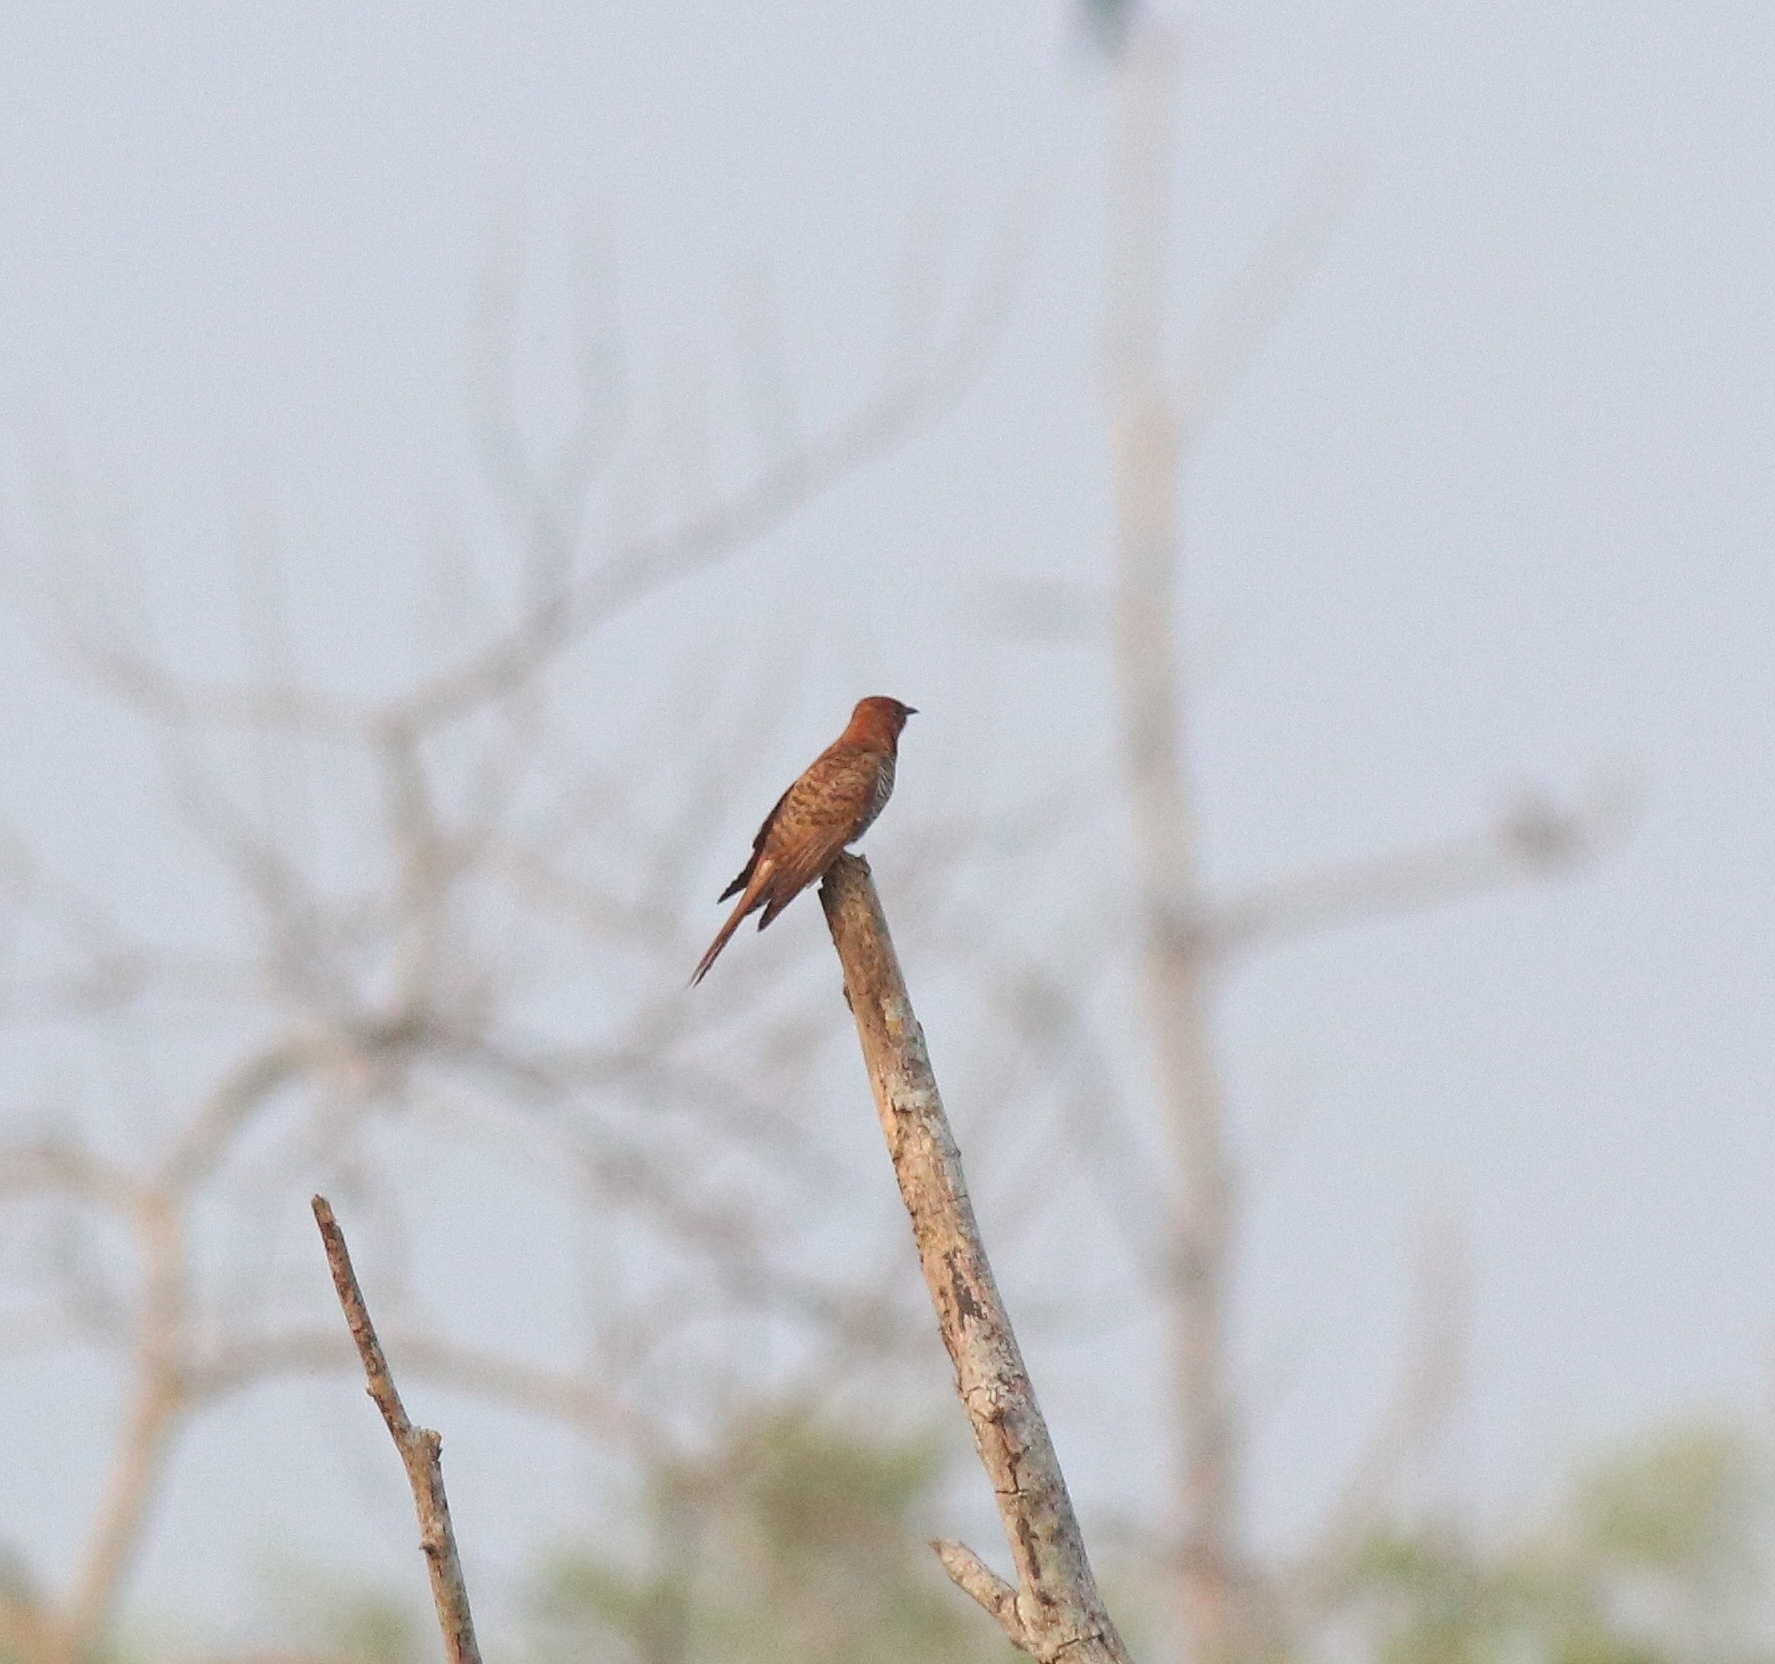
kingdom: Animalia
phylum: Chordata
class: Aves
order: Cuculiformes
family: Cuculidae
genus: Cacomantis
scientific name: Cacomantis passerinus
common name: Grey-bellied cuckoo
